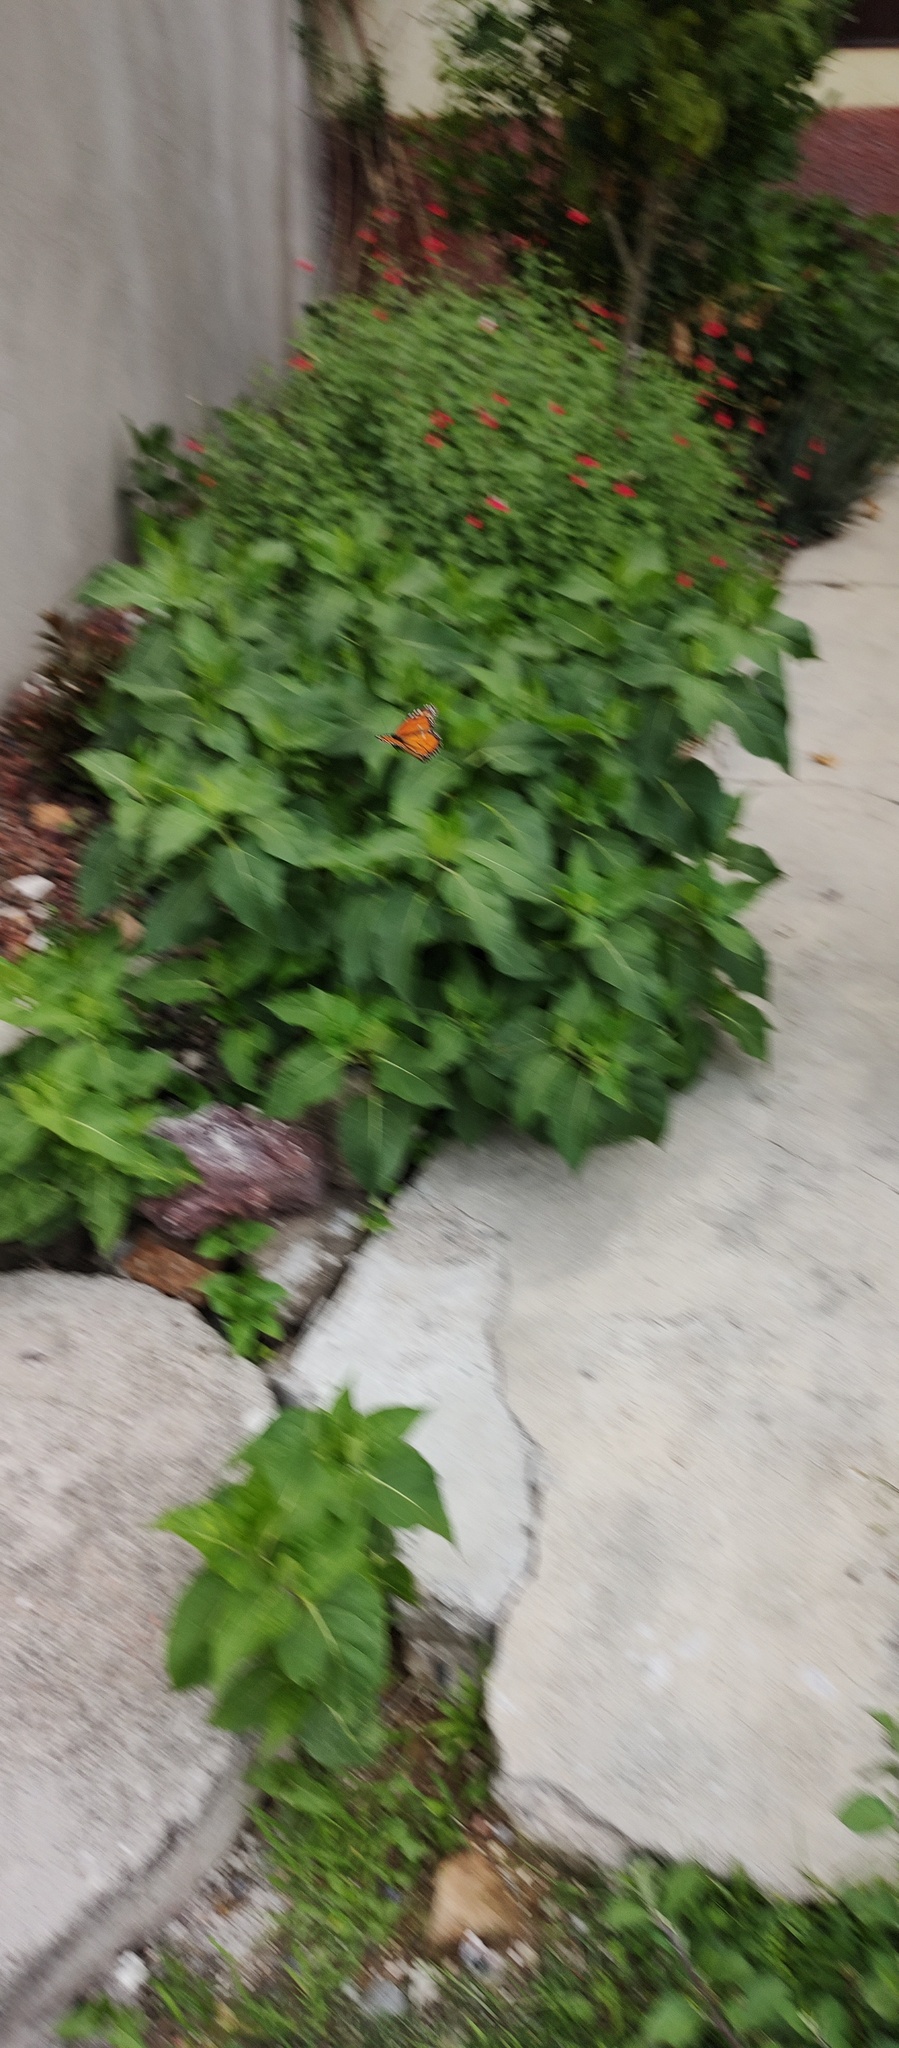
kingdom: Animalia
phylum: Arthropoda
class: Insecta
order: Lepidoptera
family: Nymphalidae
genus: Danaus
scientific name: Danaus plexippus
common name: Monarch
